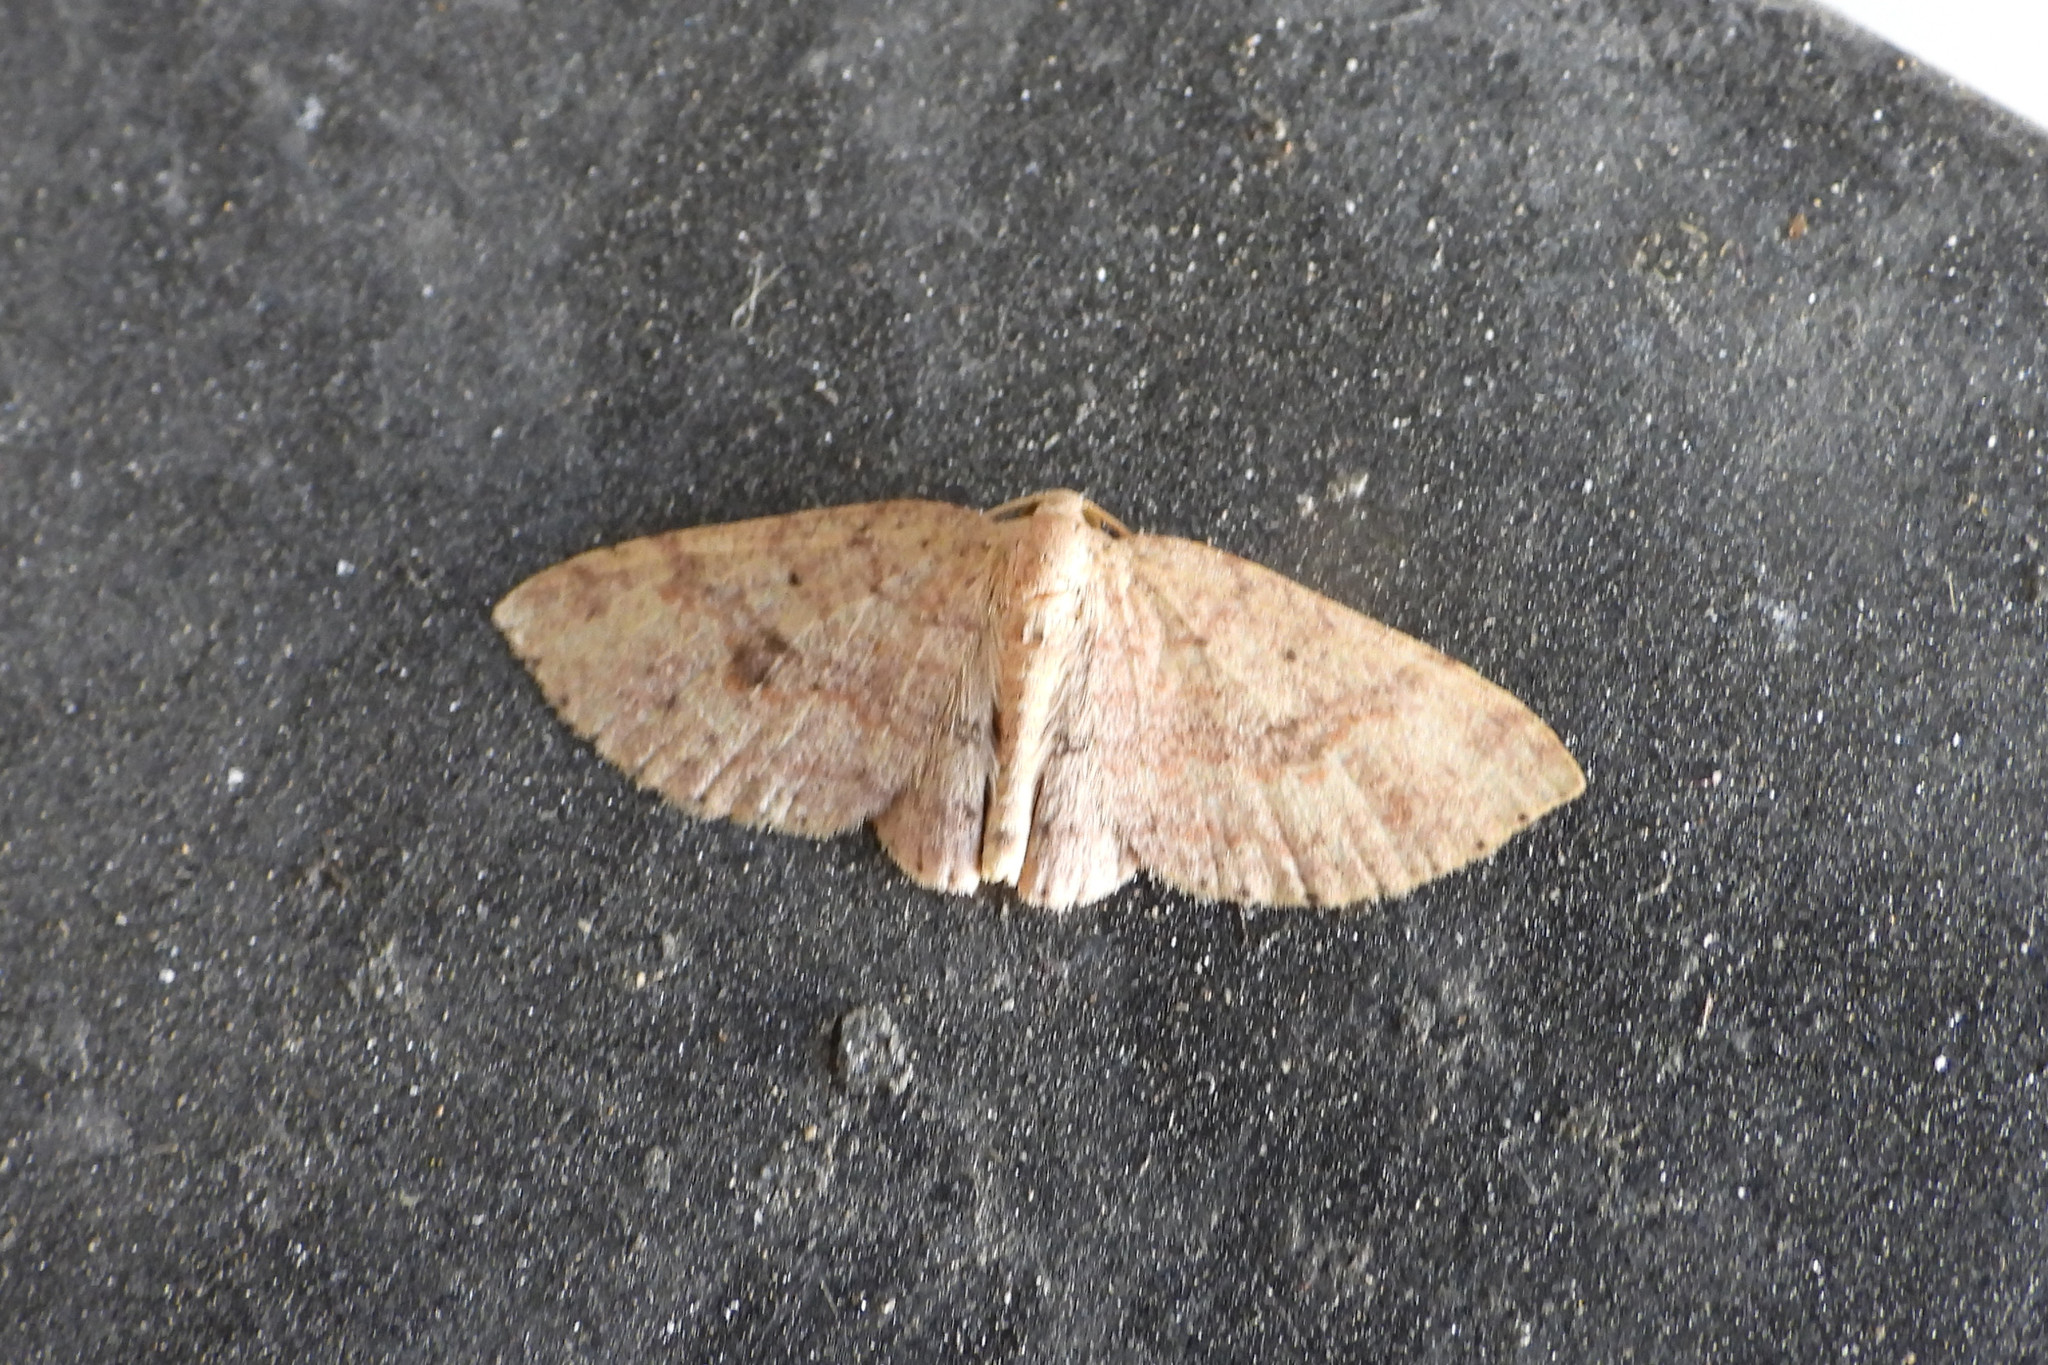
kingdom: Animalia
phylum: Arthropoda
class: Insecta
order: Lepidoptera
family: Geometridae
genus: Anydrelia
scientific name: Anydrelia distorta
